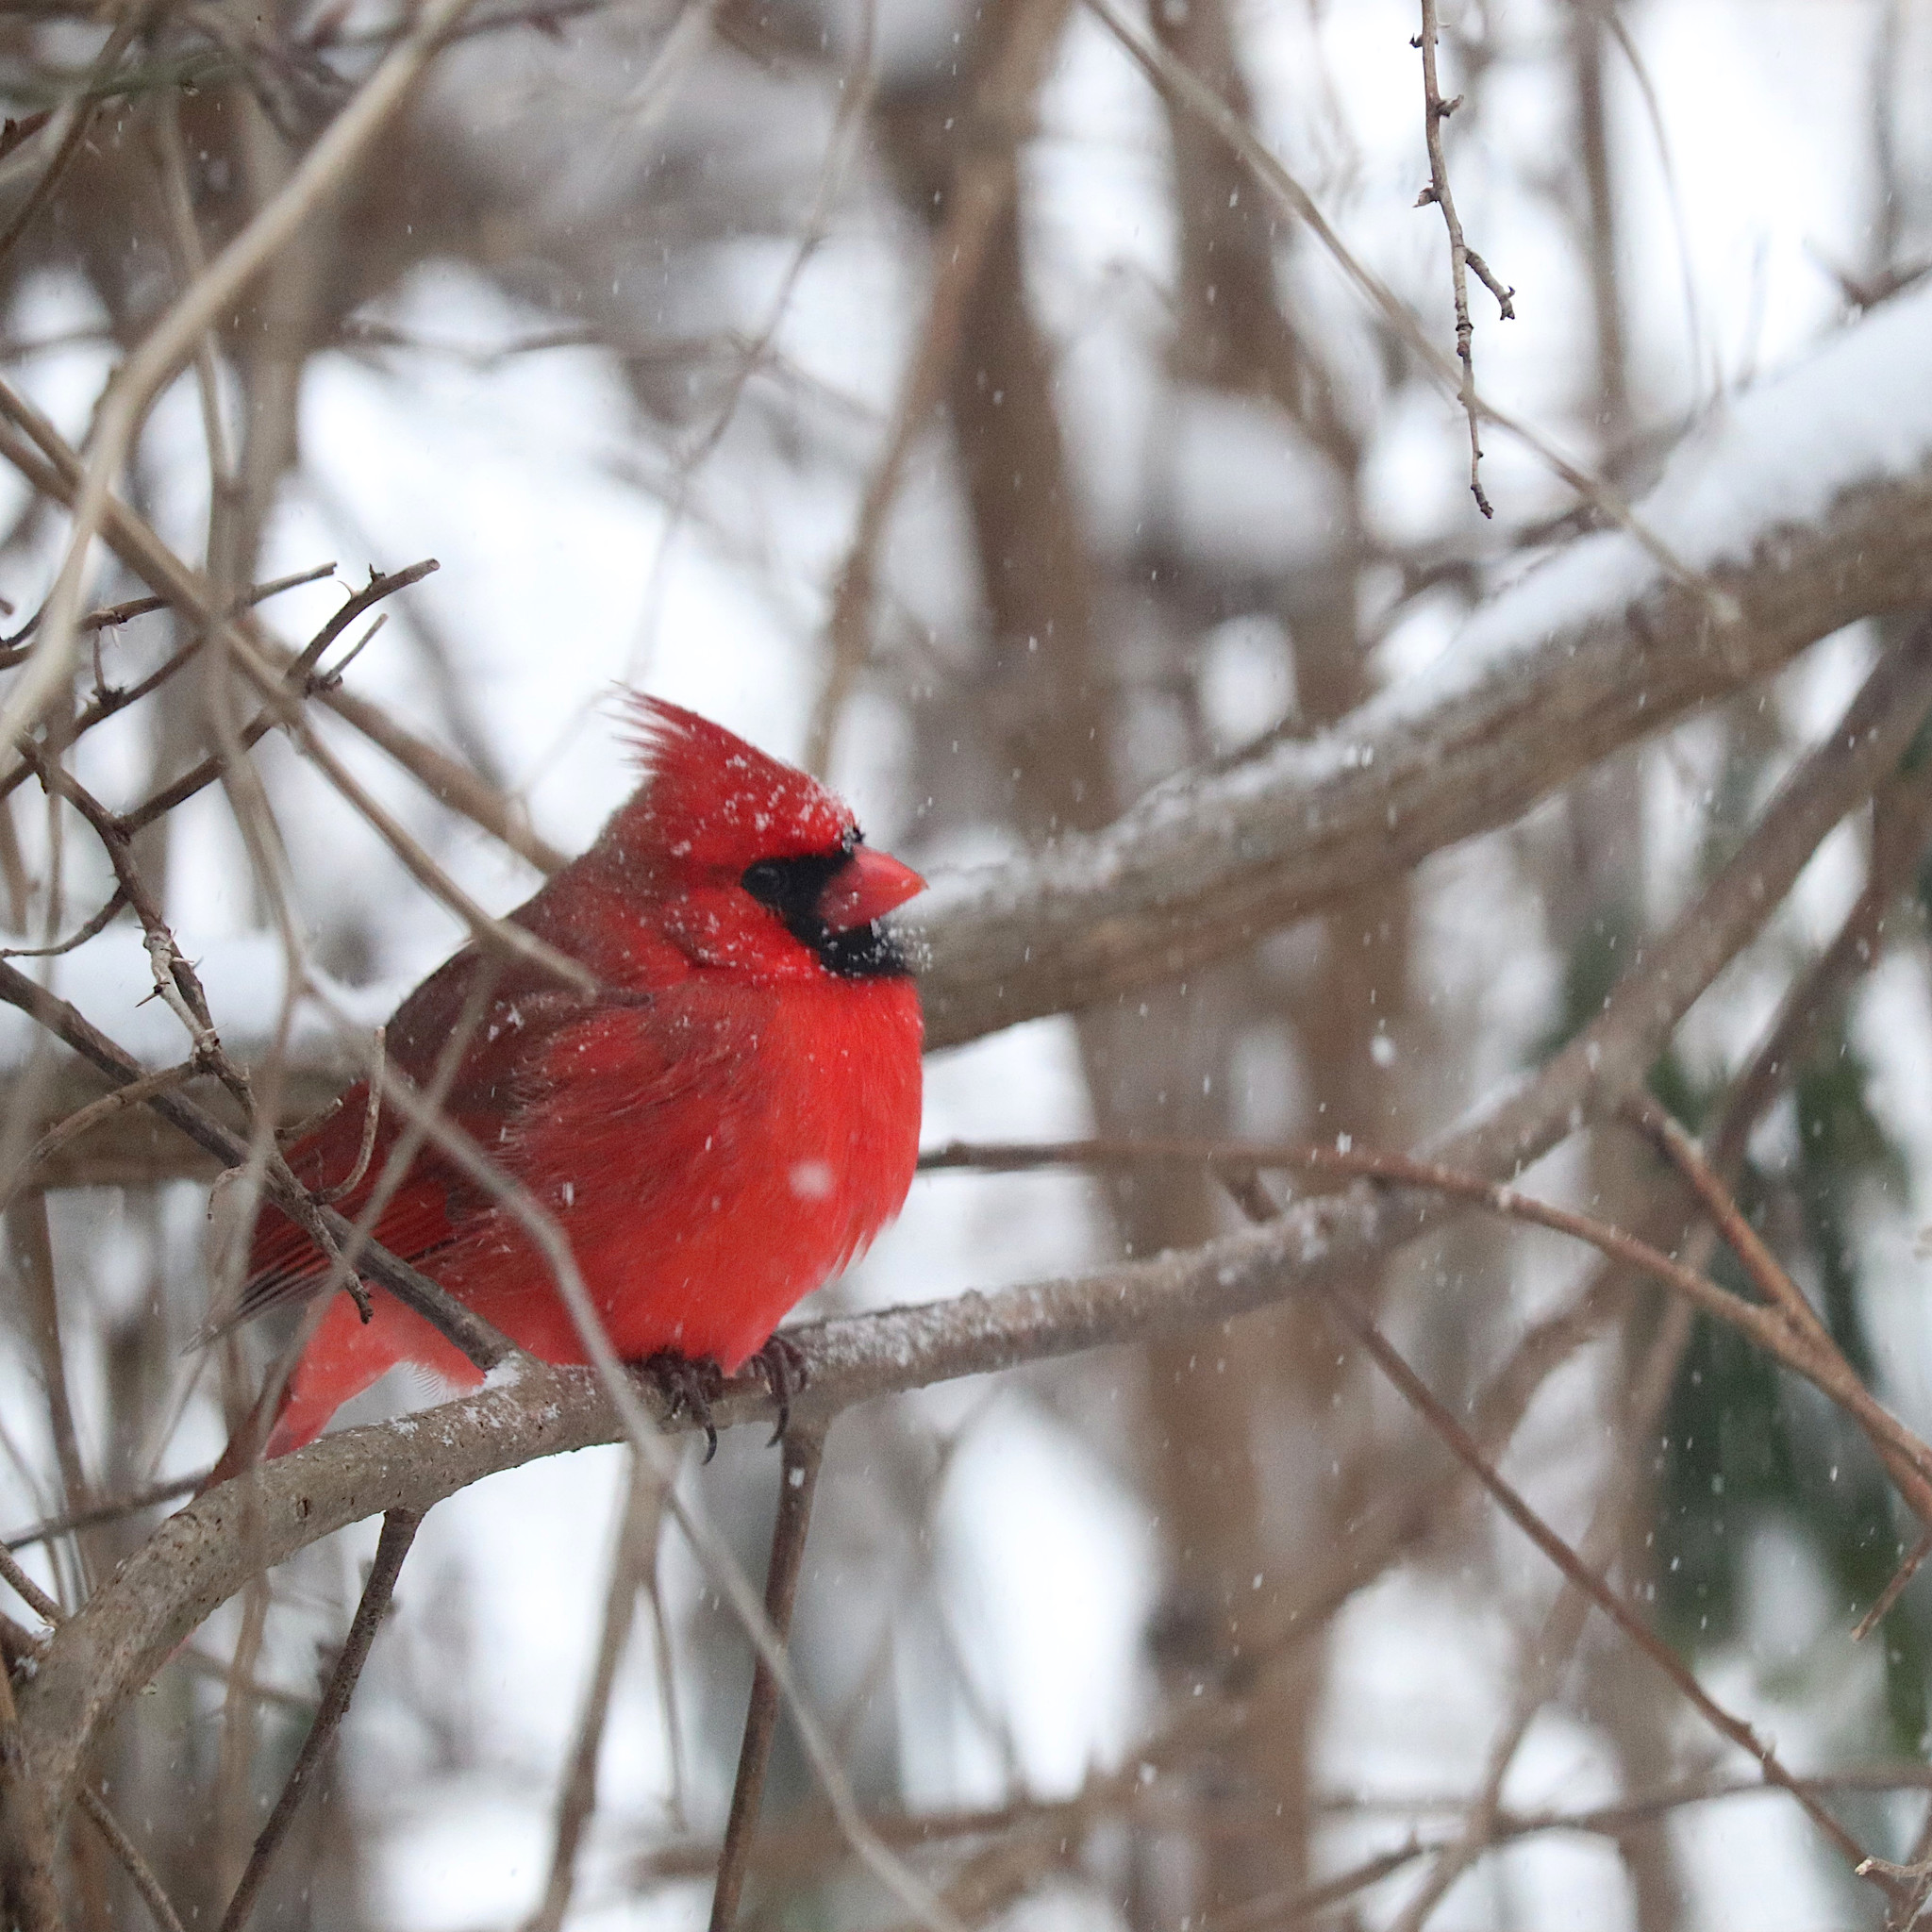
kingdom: Animalia
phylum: Chordata
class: Aves
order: Passeriformes
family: Cardinalidae
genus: Cardinalis
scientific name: Cardinalis cardinalis
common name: Northern cardinal
